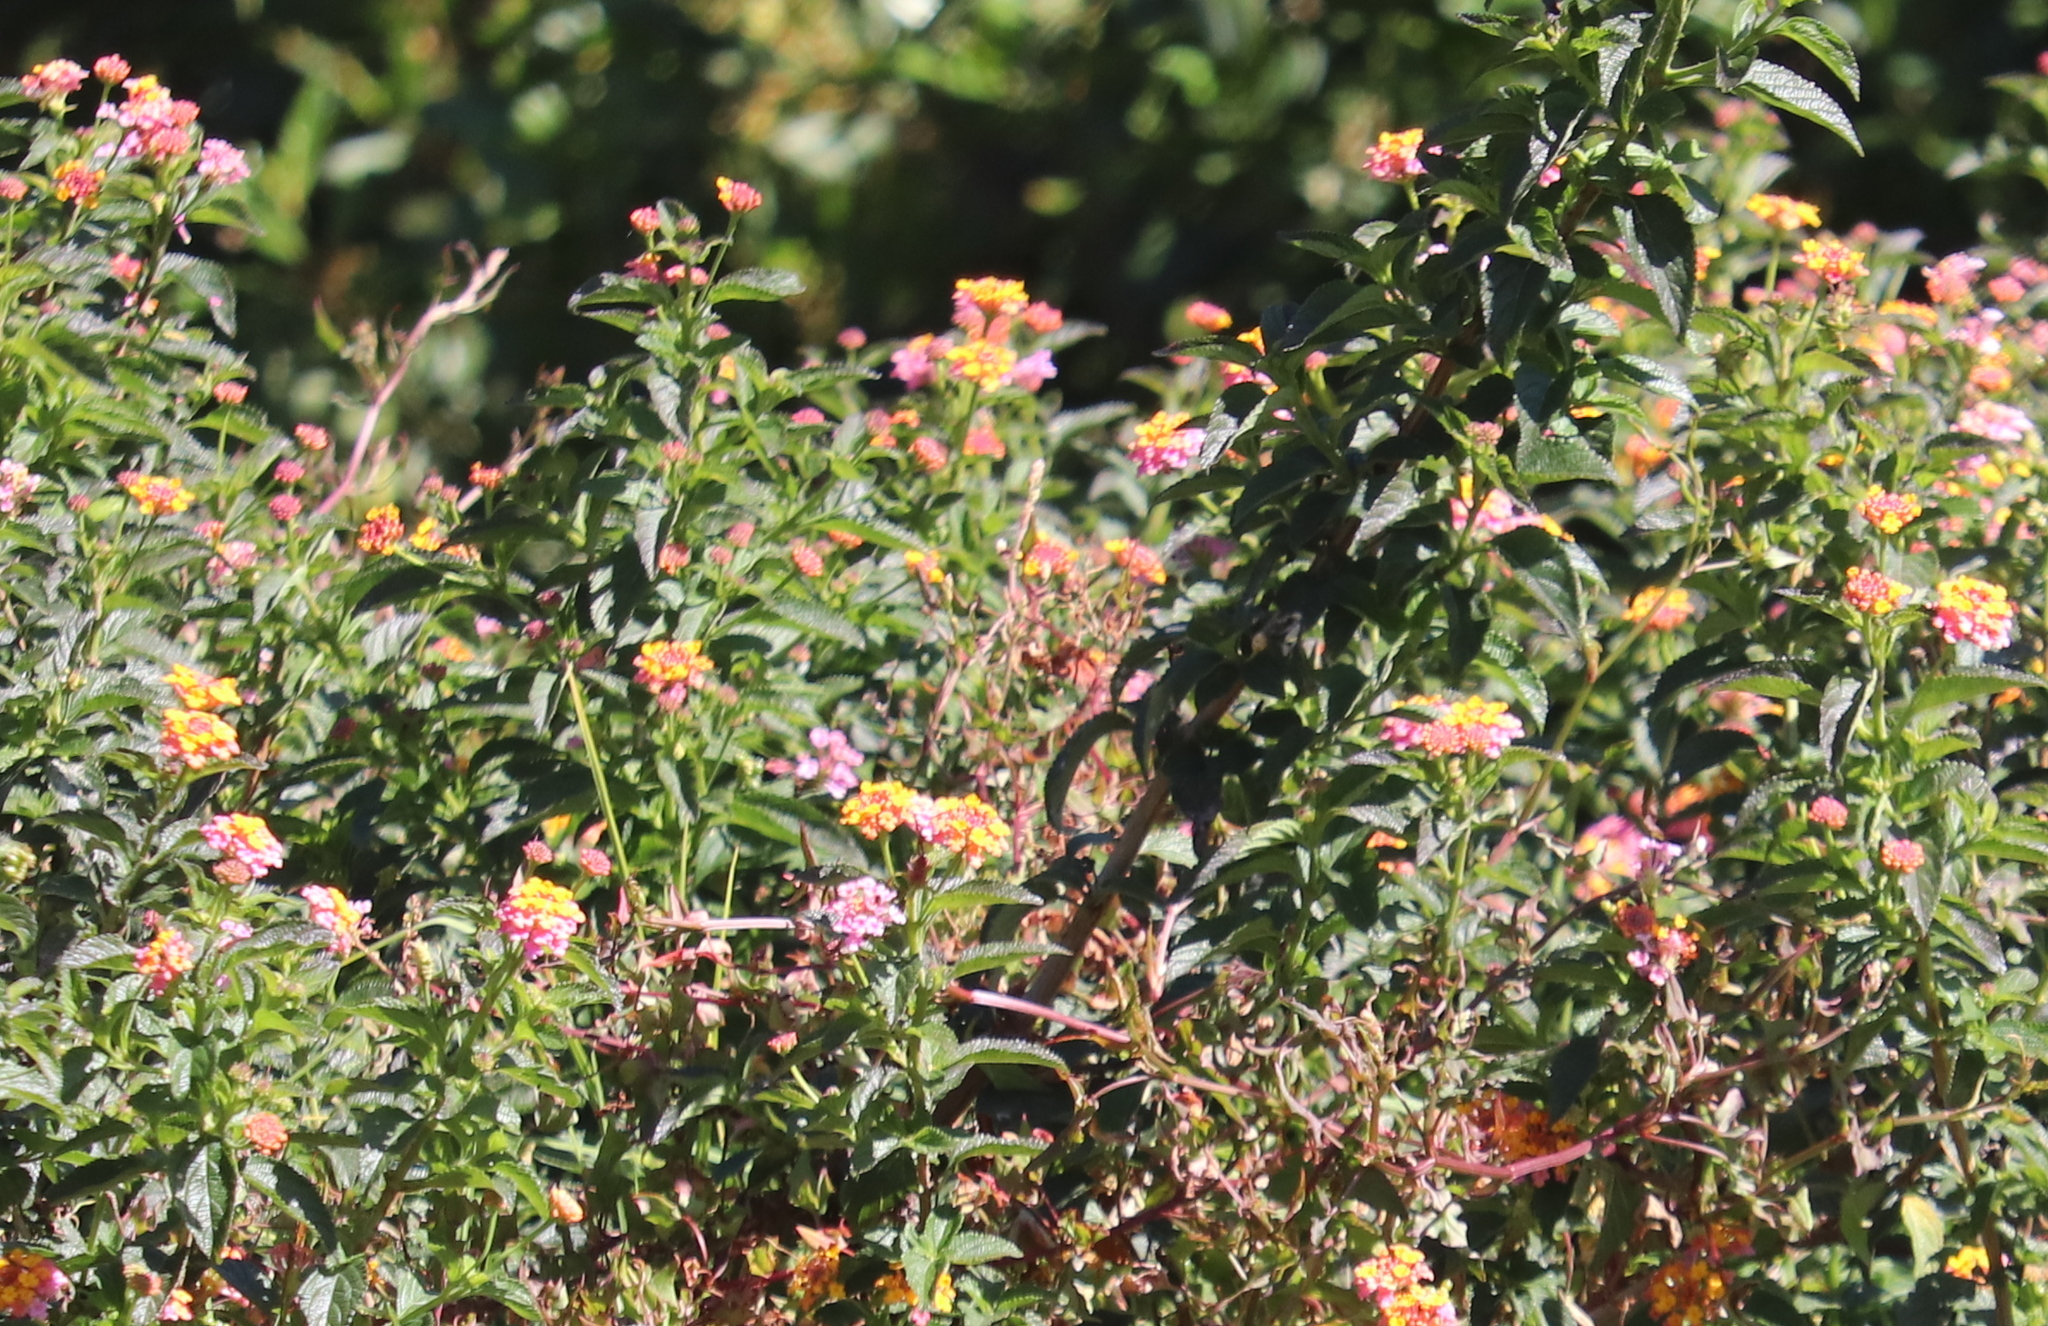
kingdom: Plantae
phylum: Tracheophyta
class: Magnoliopsida
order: Lamiales
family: Verbenaceae
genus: Lantana
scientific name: Lantana camara
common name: Lantana
